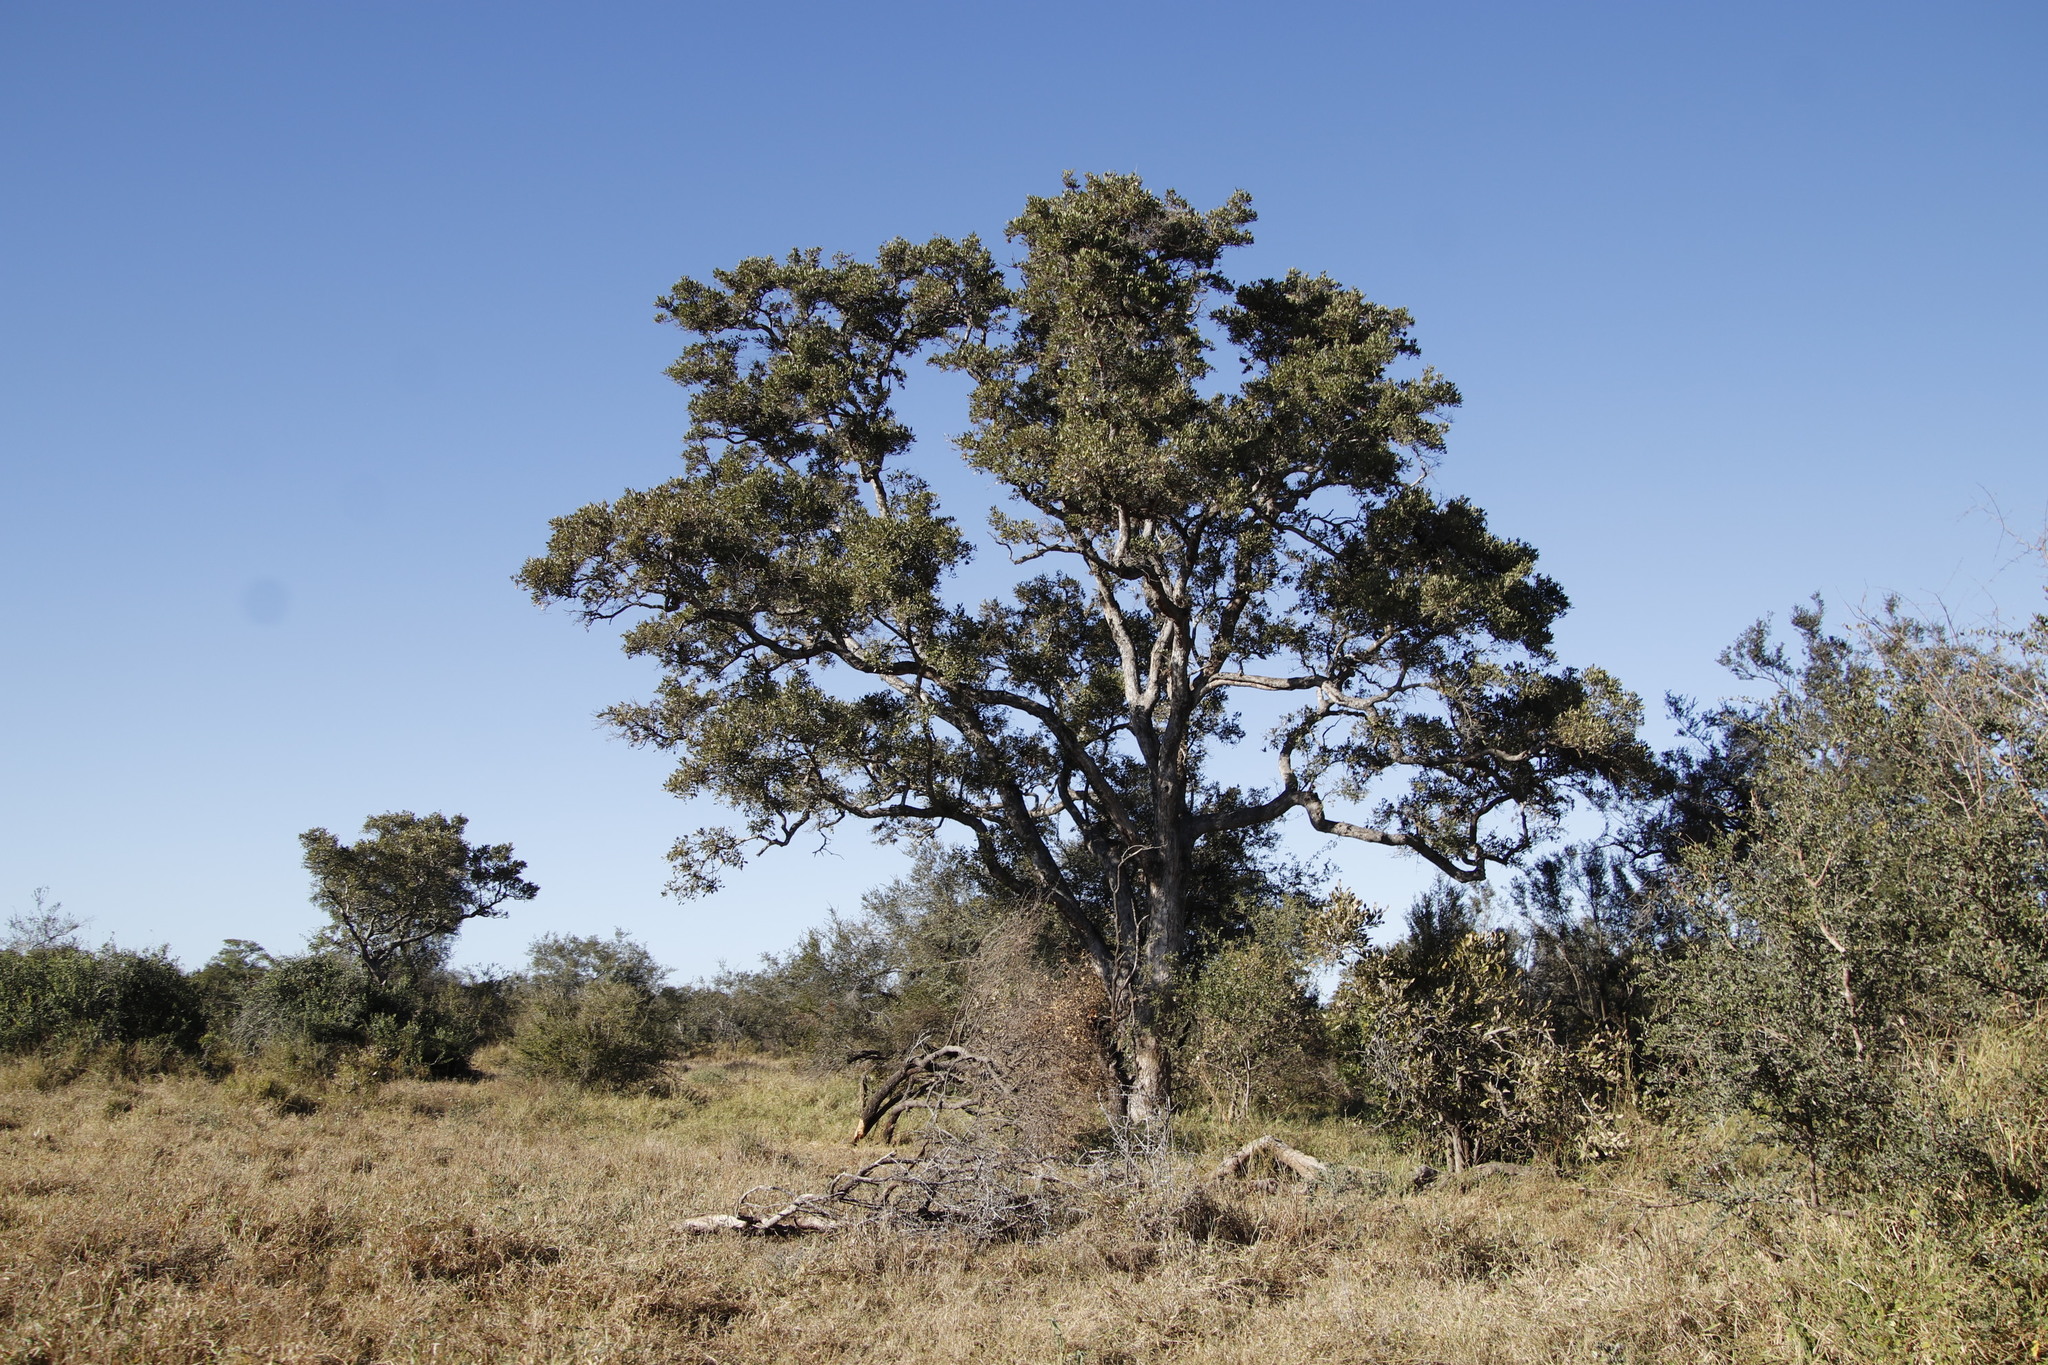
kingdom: Plantae
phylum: Tracheophyta
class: Magnoliopsida
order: Fabales
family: Fabaceae
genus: Philenoptera
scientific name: Philenoptera violacea
